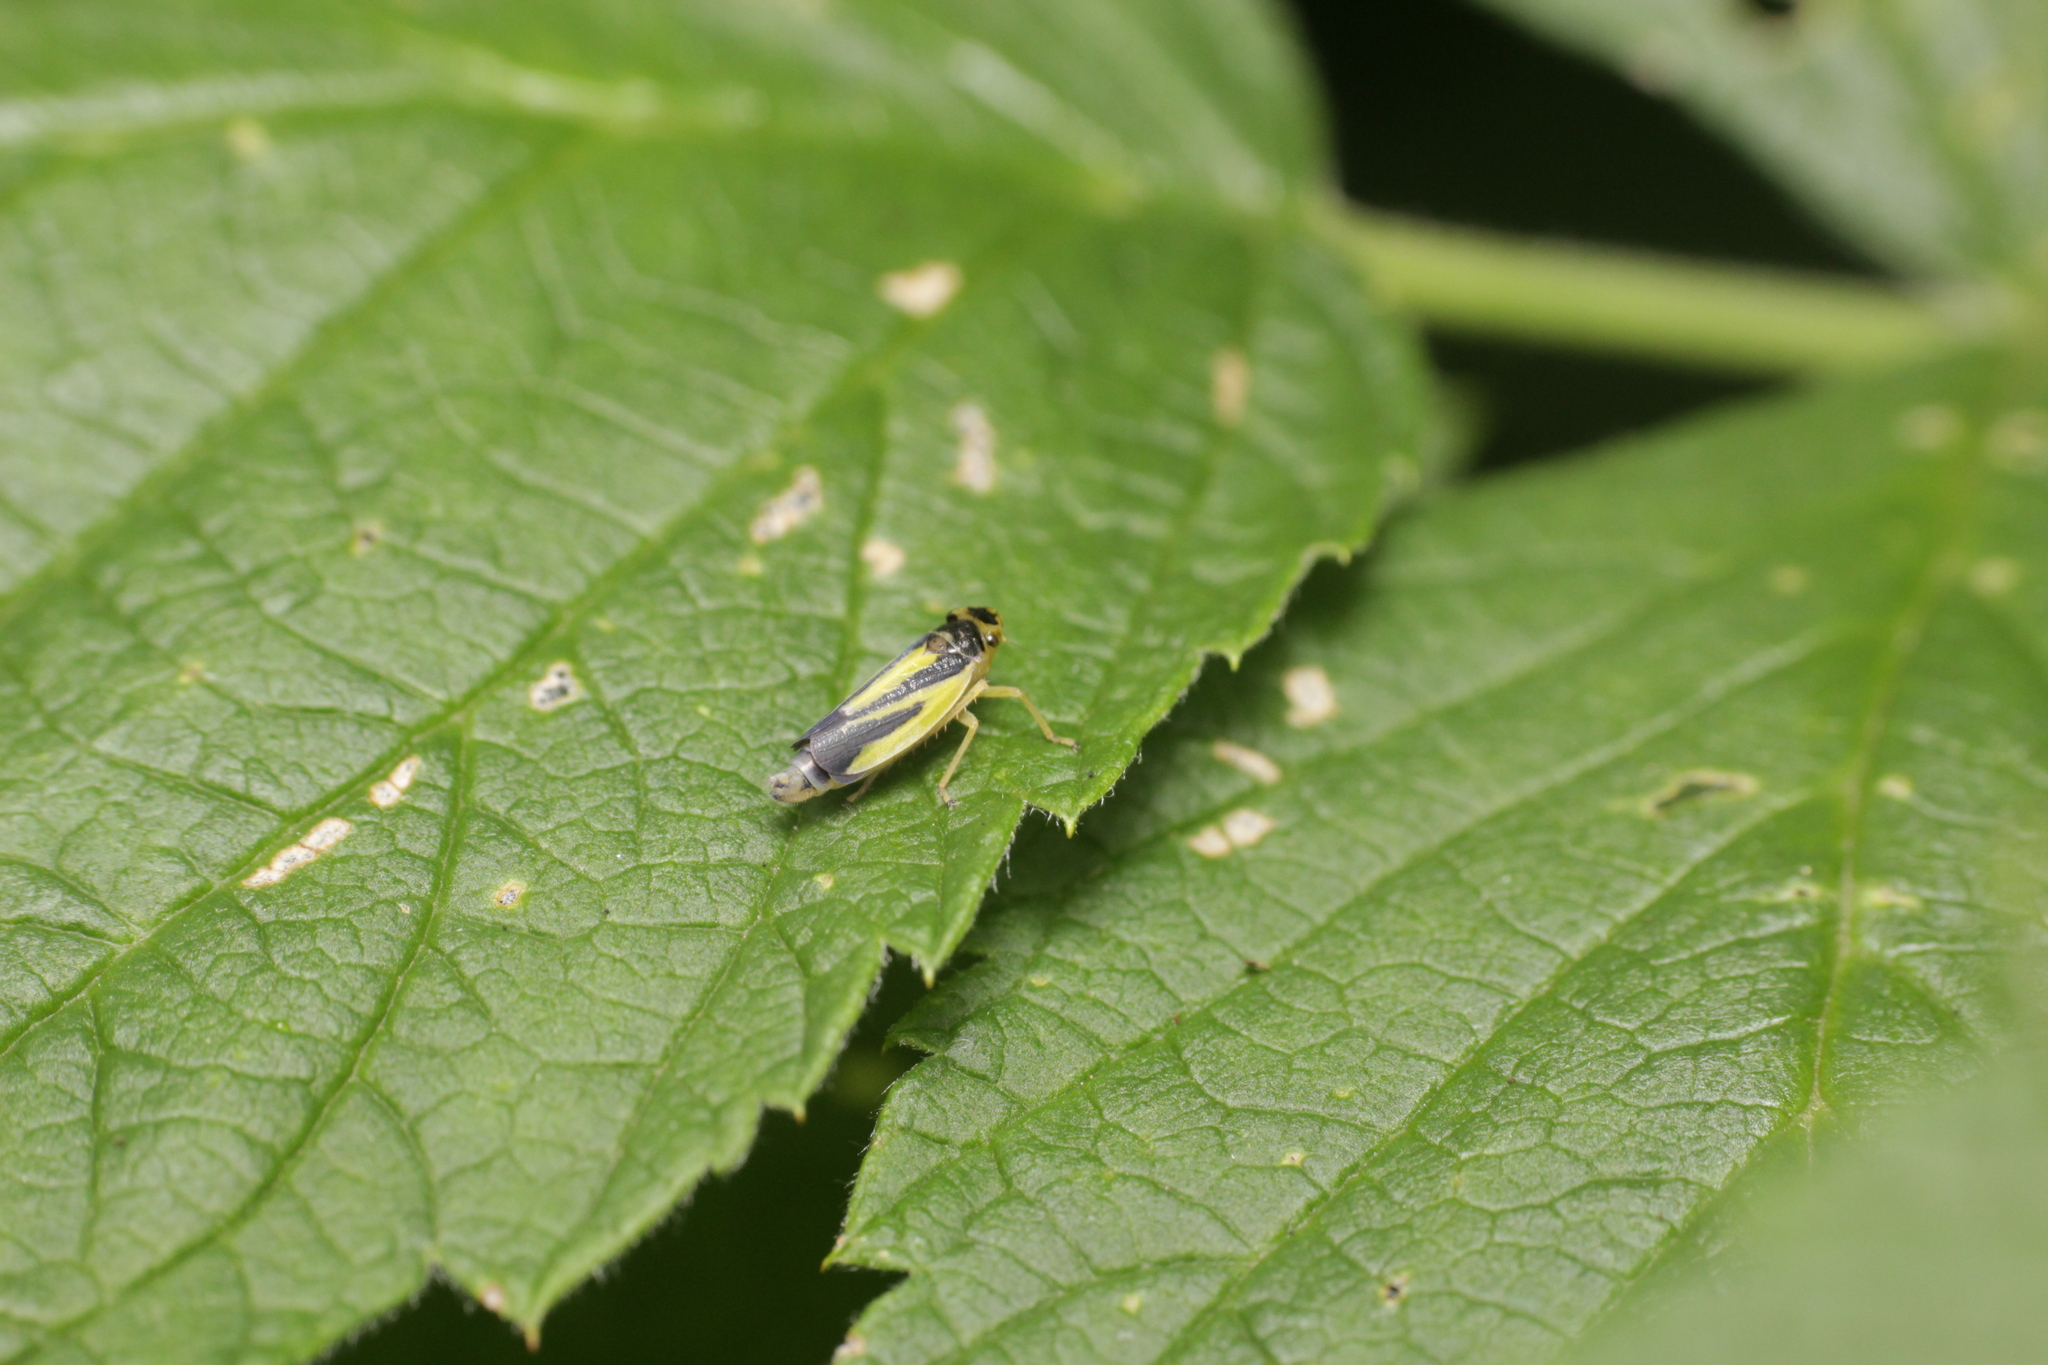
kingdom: Animalia
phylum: Arthropoda
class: Insecta
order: Hemiptera
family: Cicadellidae
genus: Evacanthus
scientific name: Evacanthus interruptus
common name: Leafhopper
